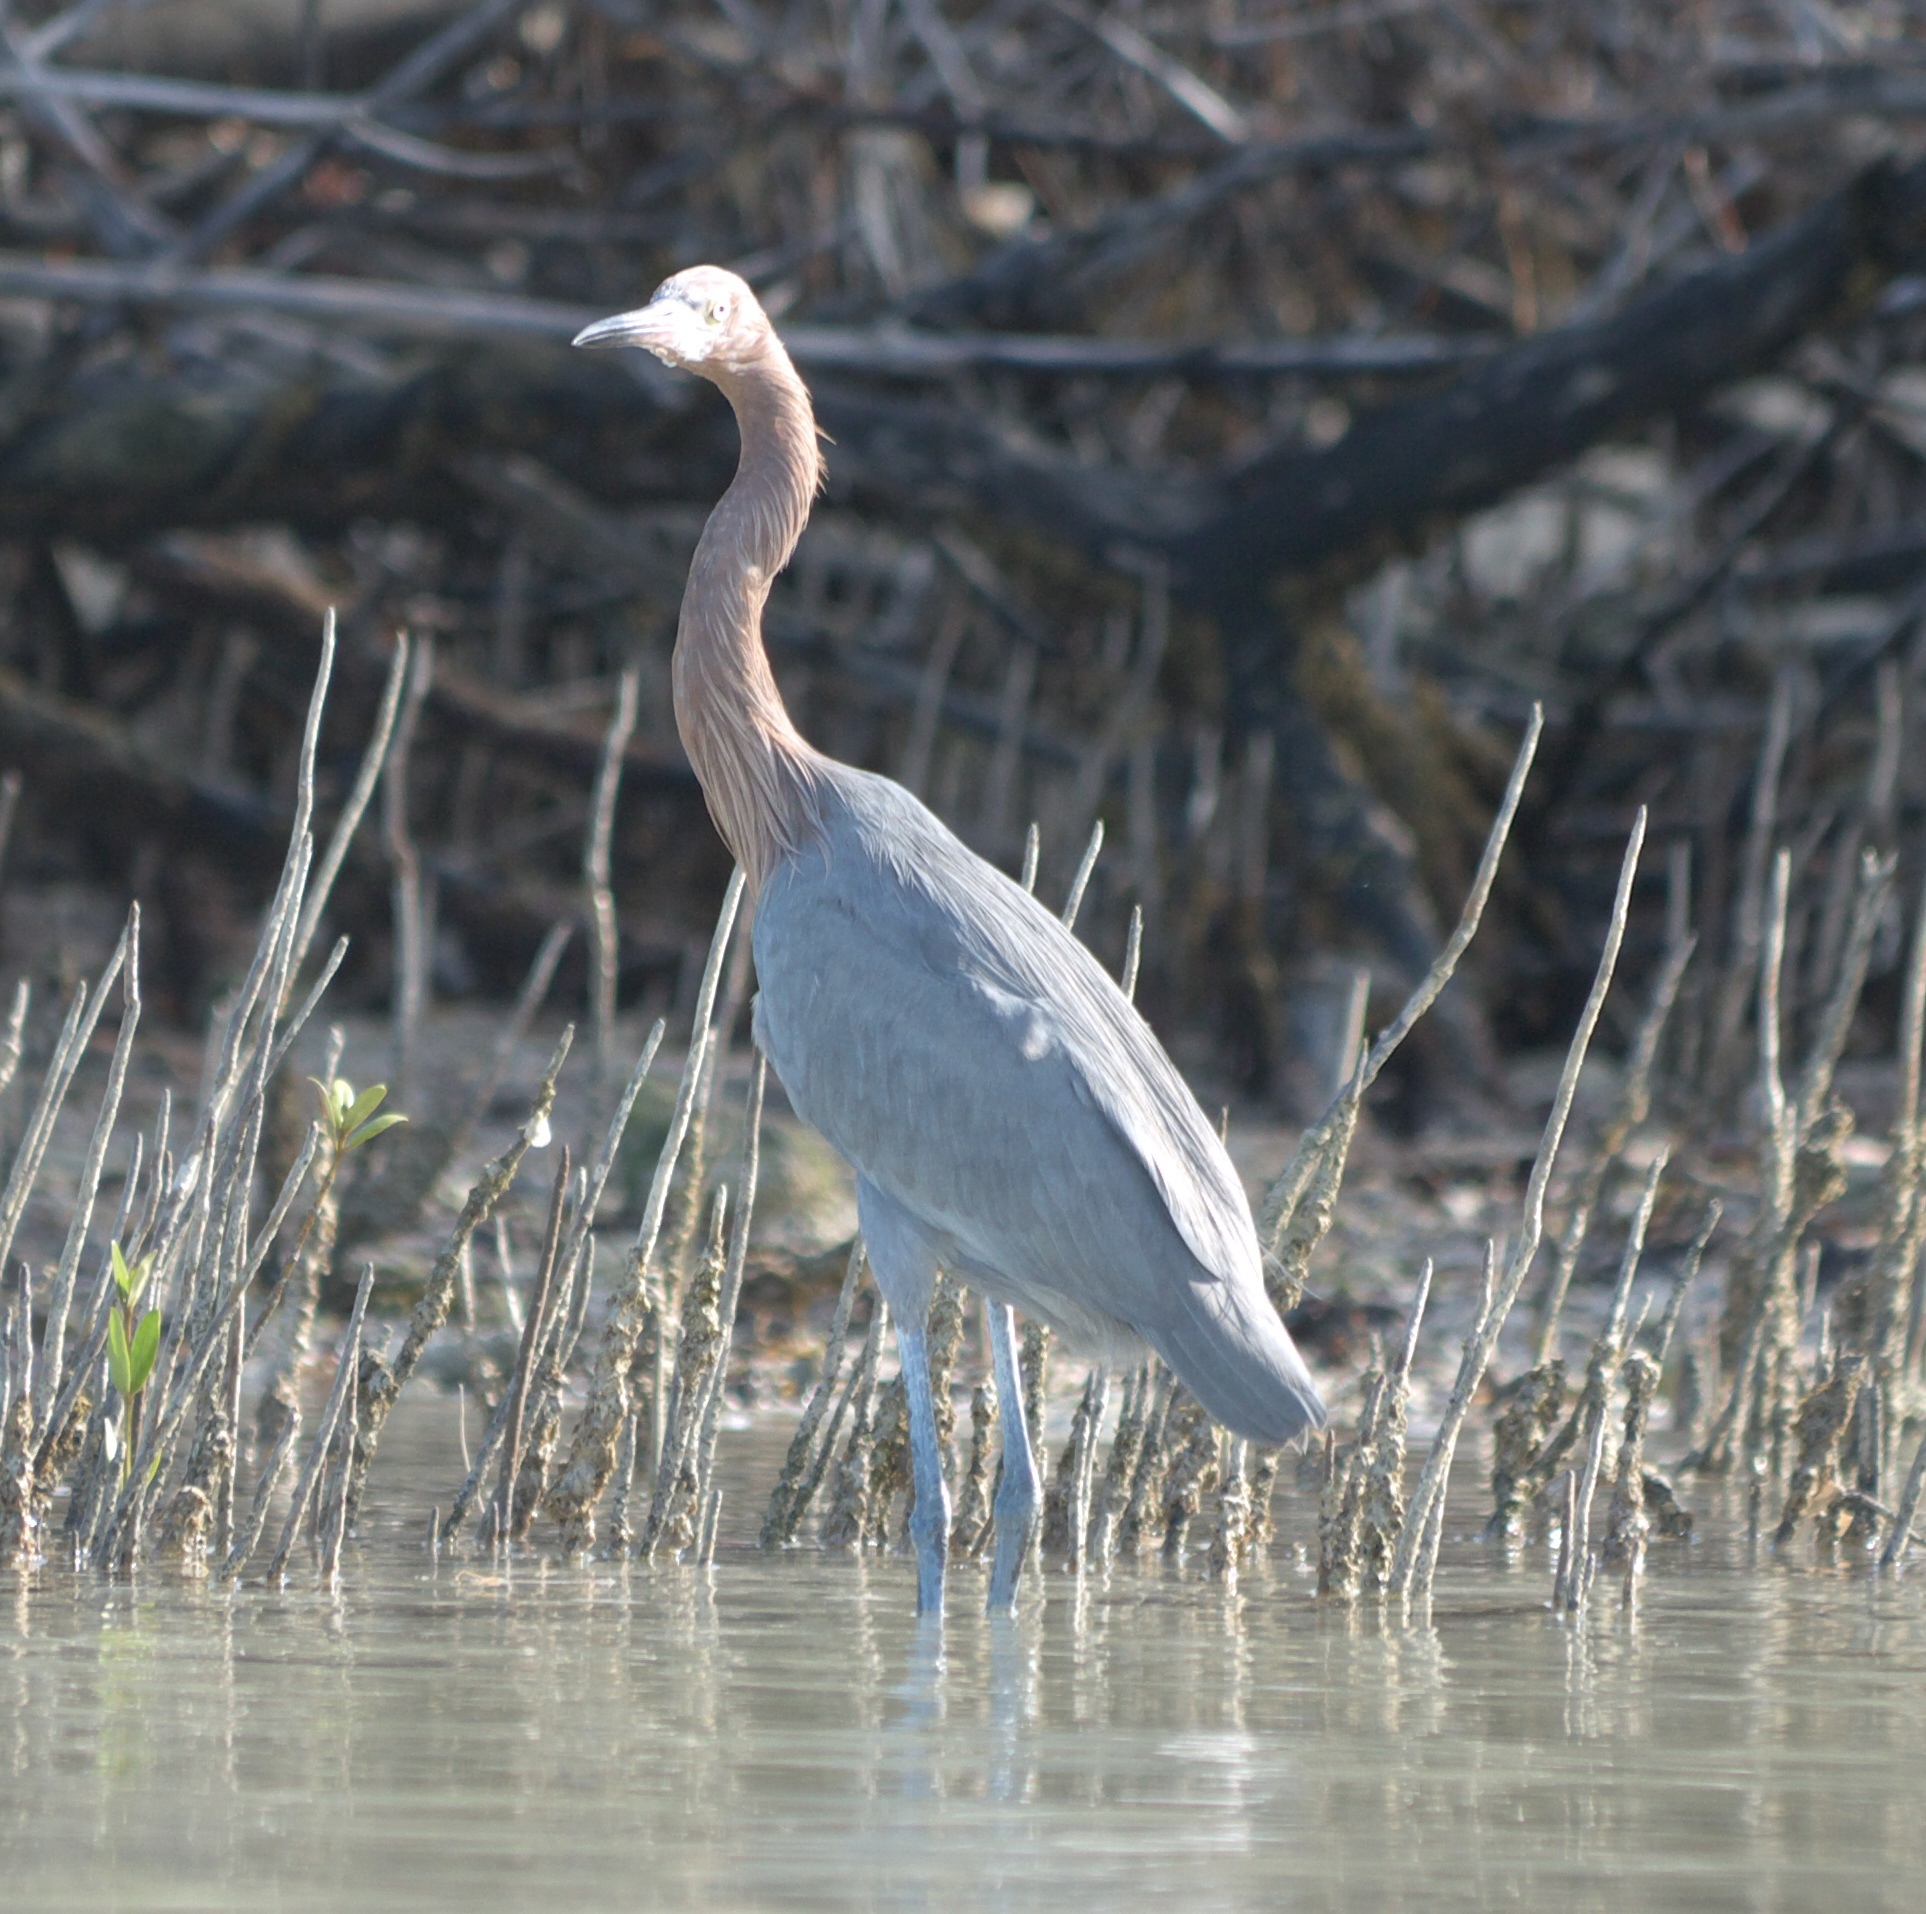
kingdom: Animalia
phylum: Chordata
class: Aves
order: Pelecaniformes
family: Ardeidae
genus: Egretta
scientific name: Egretta rufescens
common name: Reddish egret
